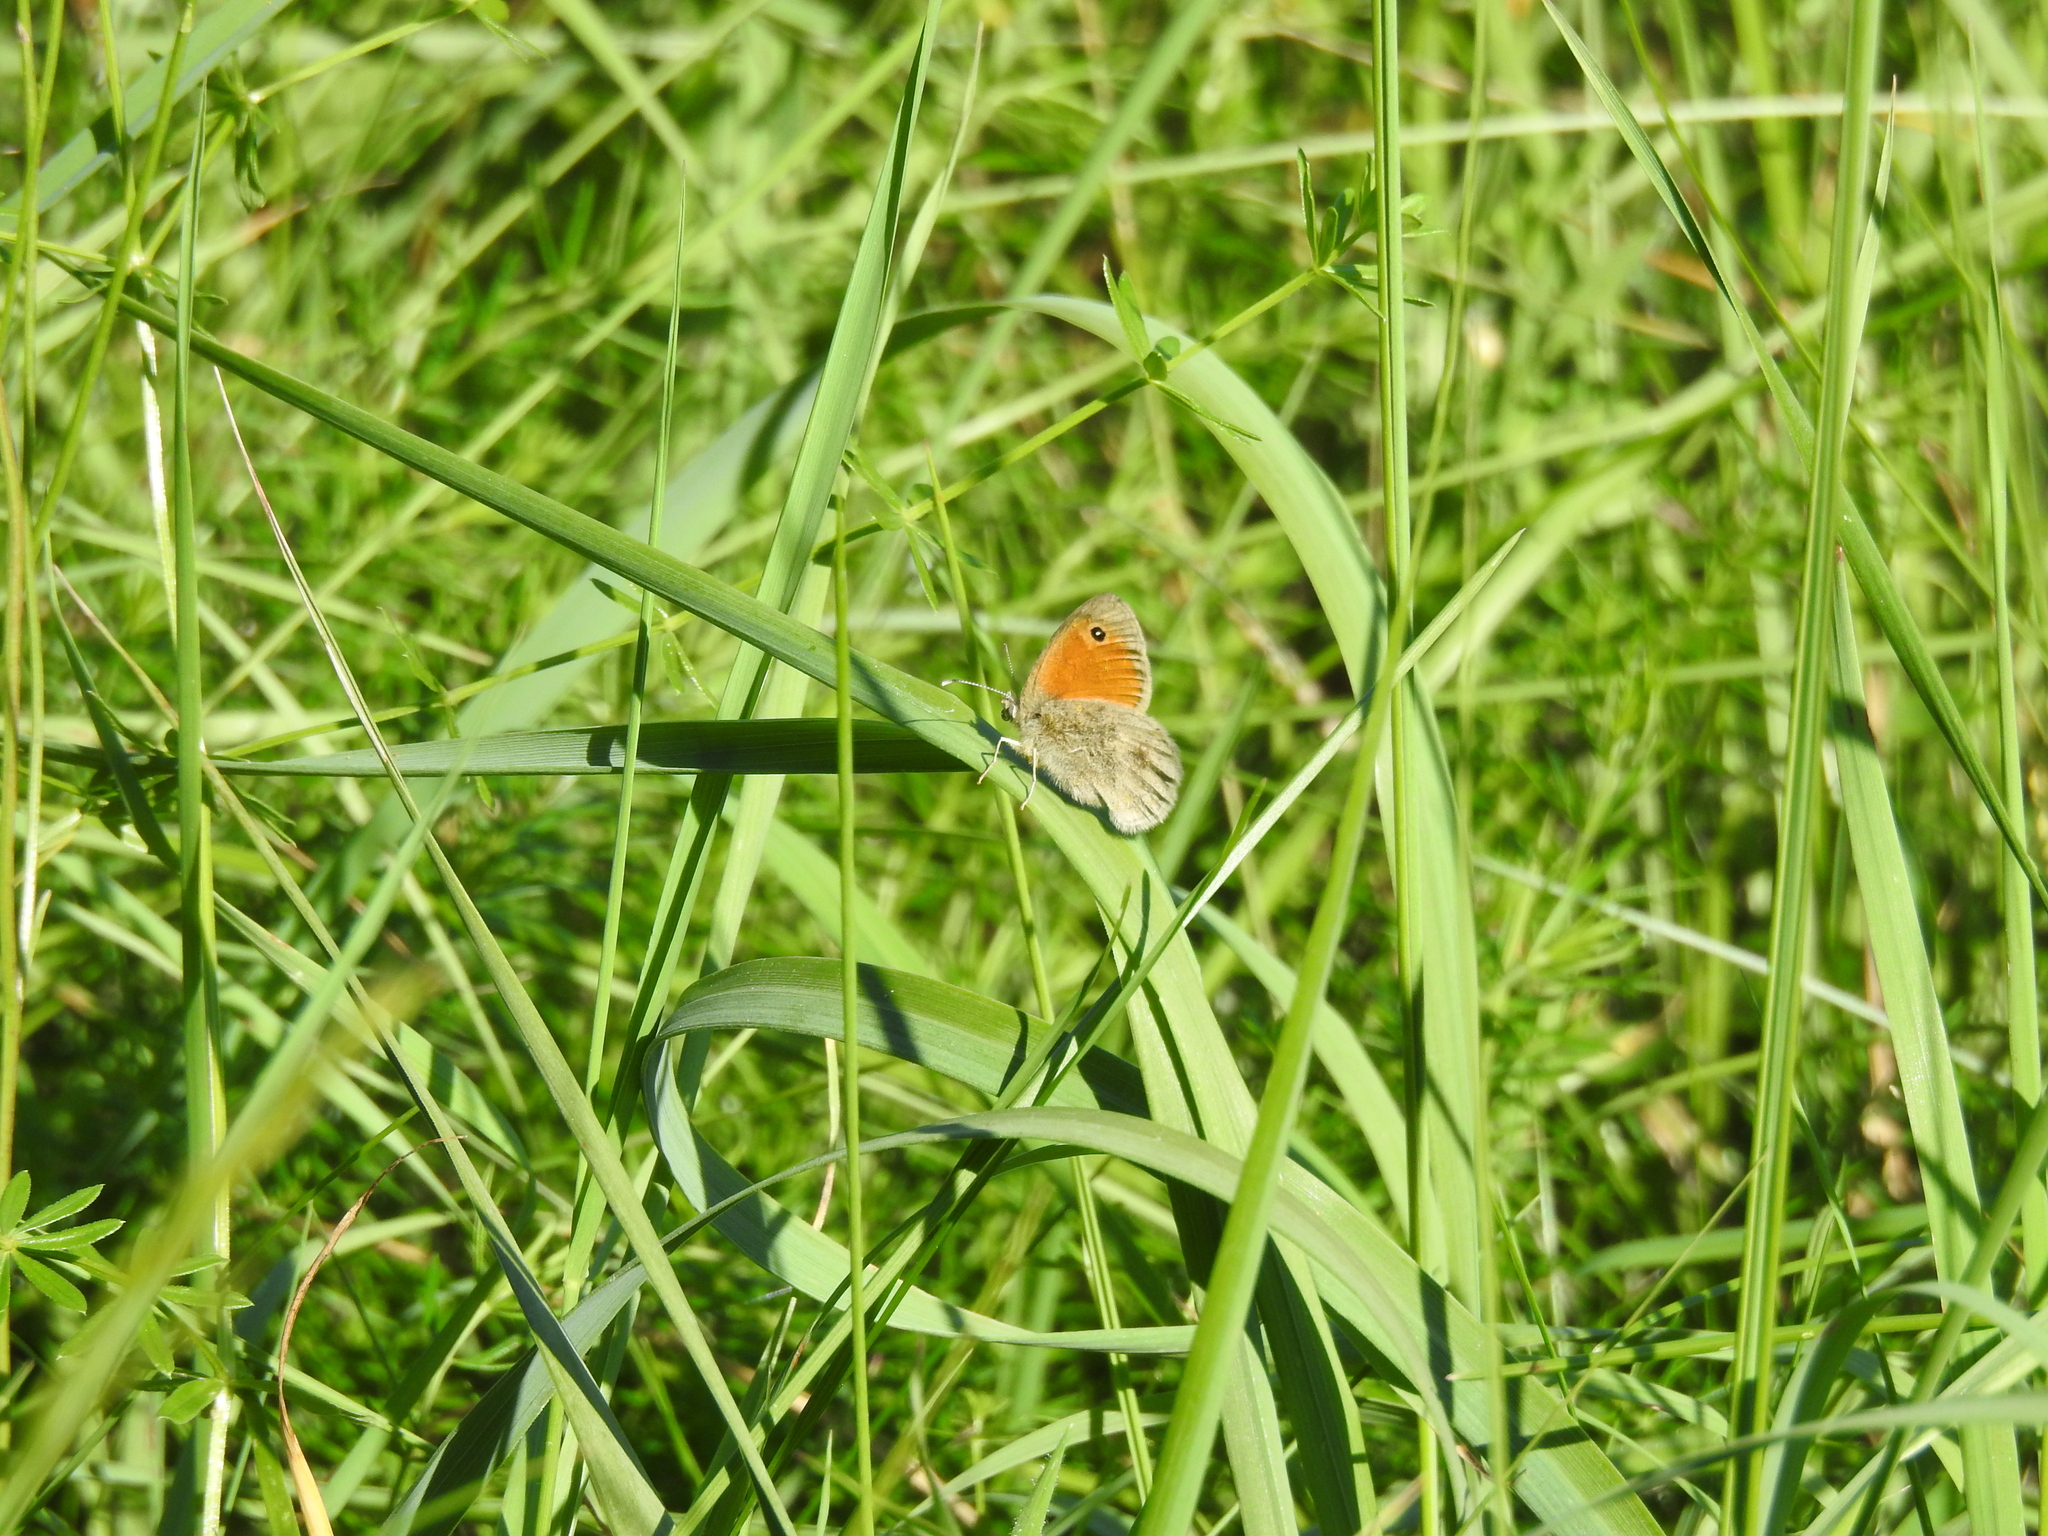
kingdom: Animalia
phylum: Arthropoda
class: Insecta
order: Lepidoptera
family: Nymphalidae
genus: Coenonympha
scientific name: Coenonympha pamphilus
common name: Small heath
